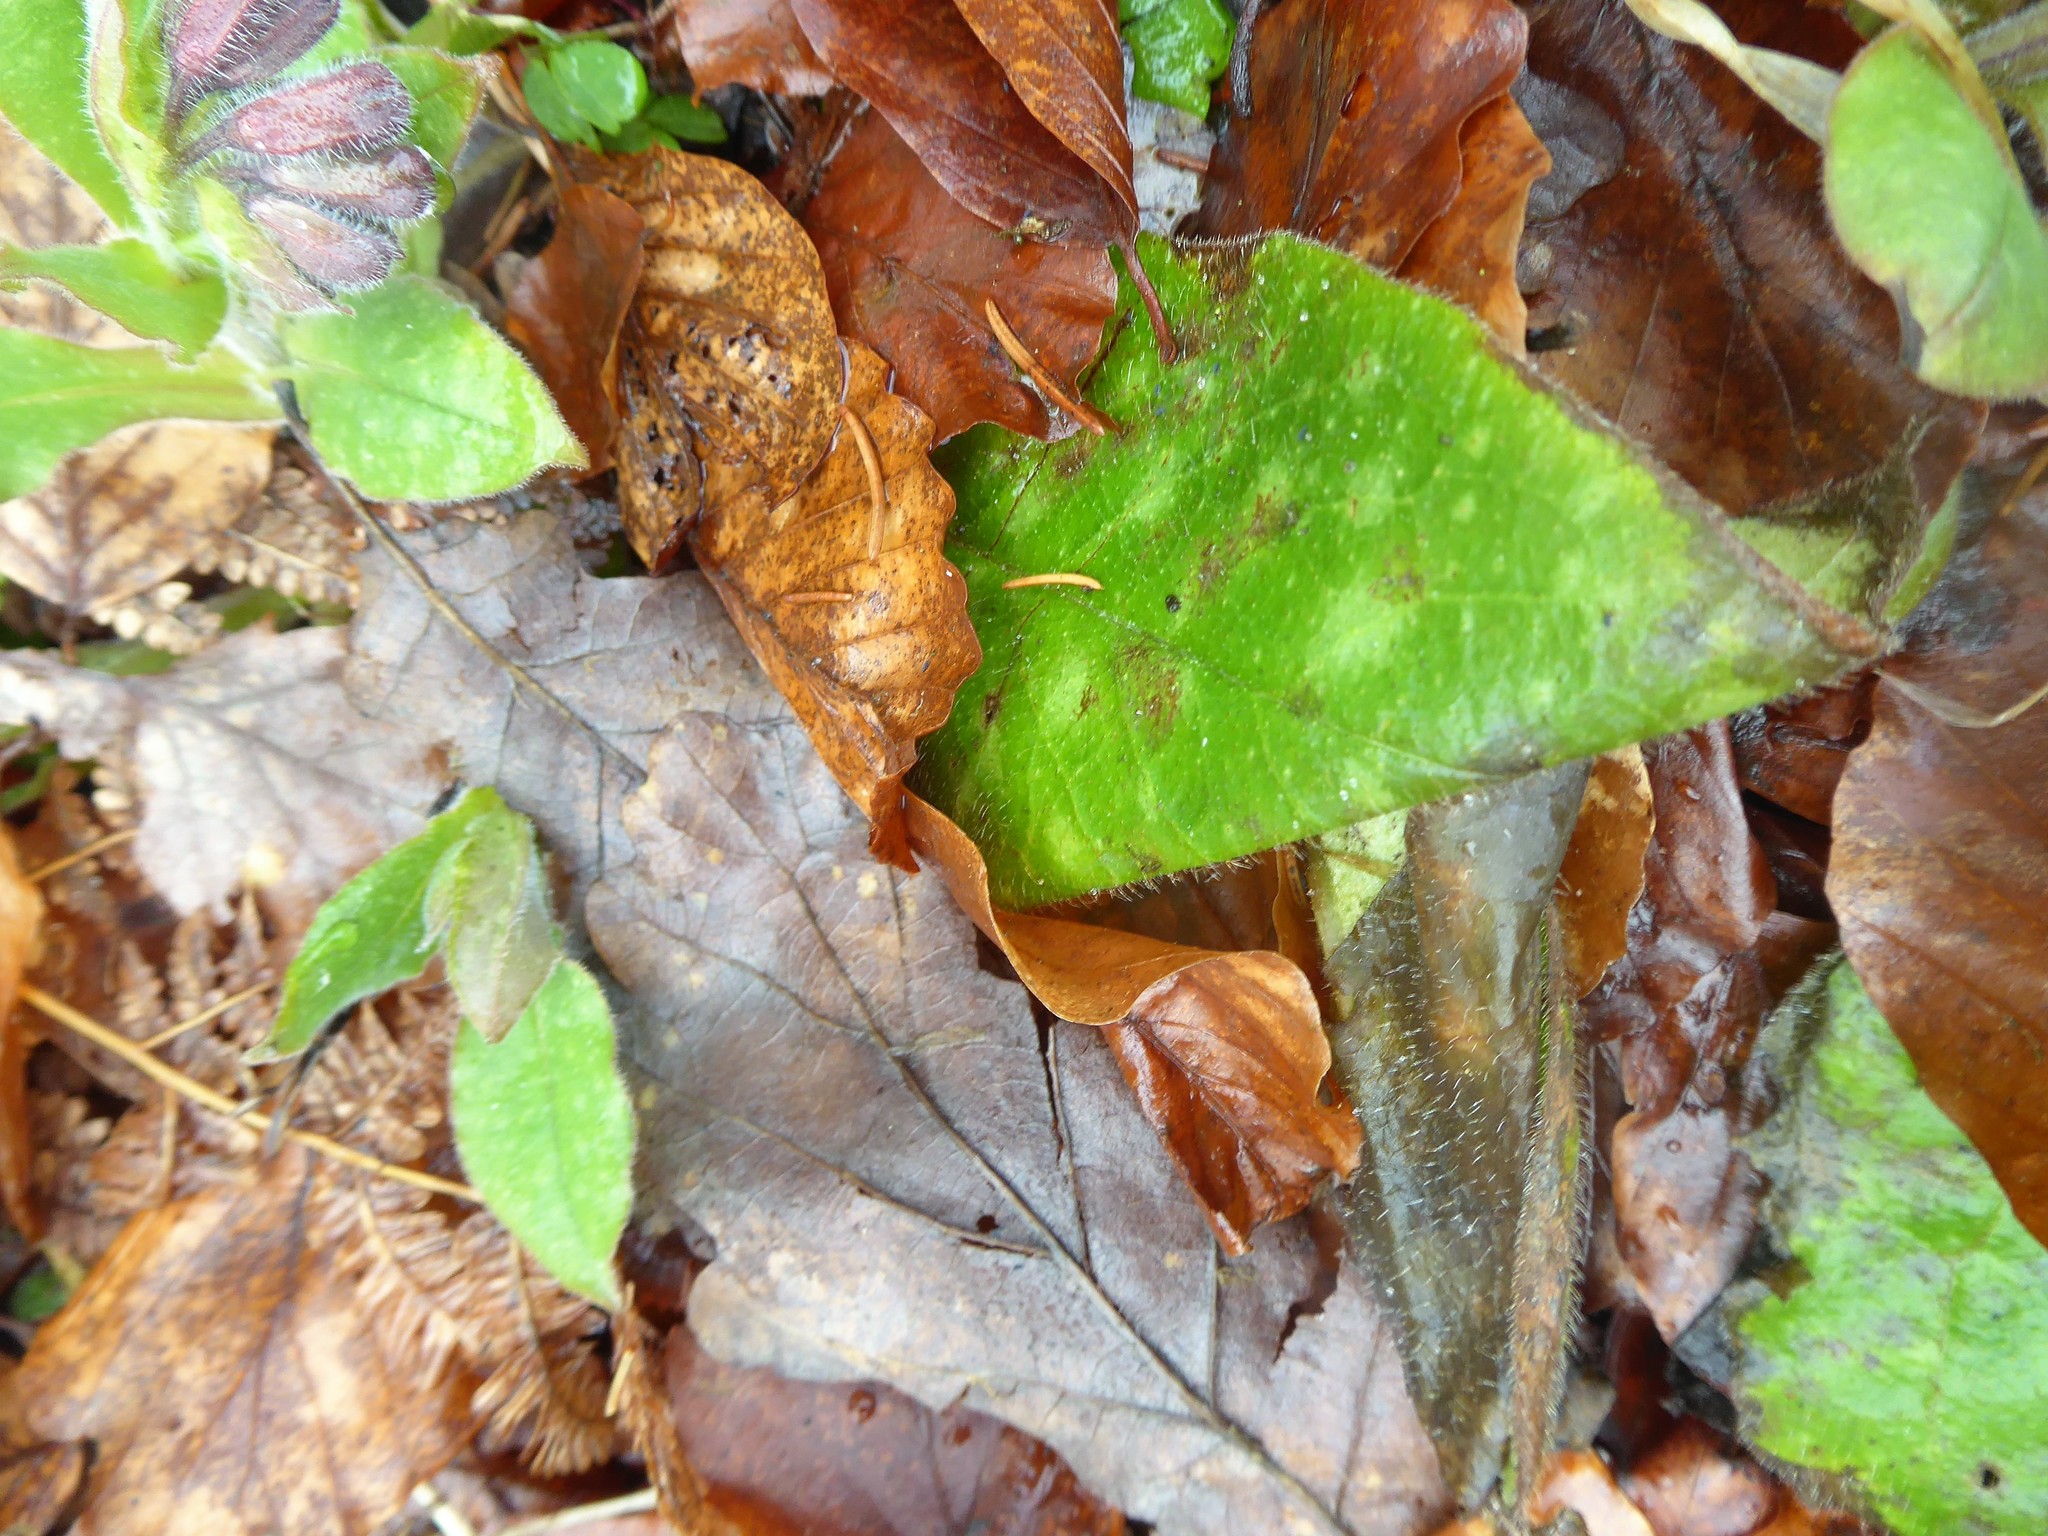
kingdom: Plantae
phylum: Tracheophyta
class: Magnoliopsida
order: Boraginales
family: Boraginaceae
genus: Pulmonaria
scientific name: Pulmonaria officinalis
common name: Lungwort
